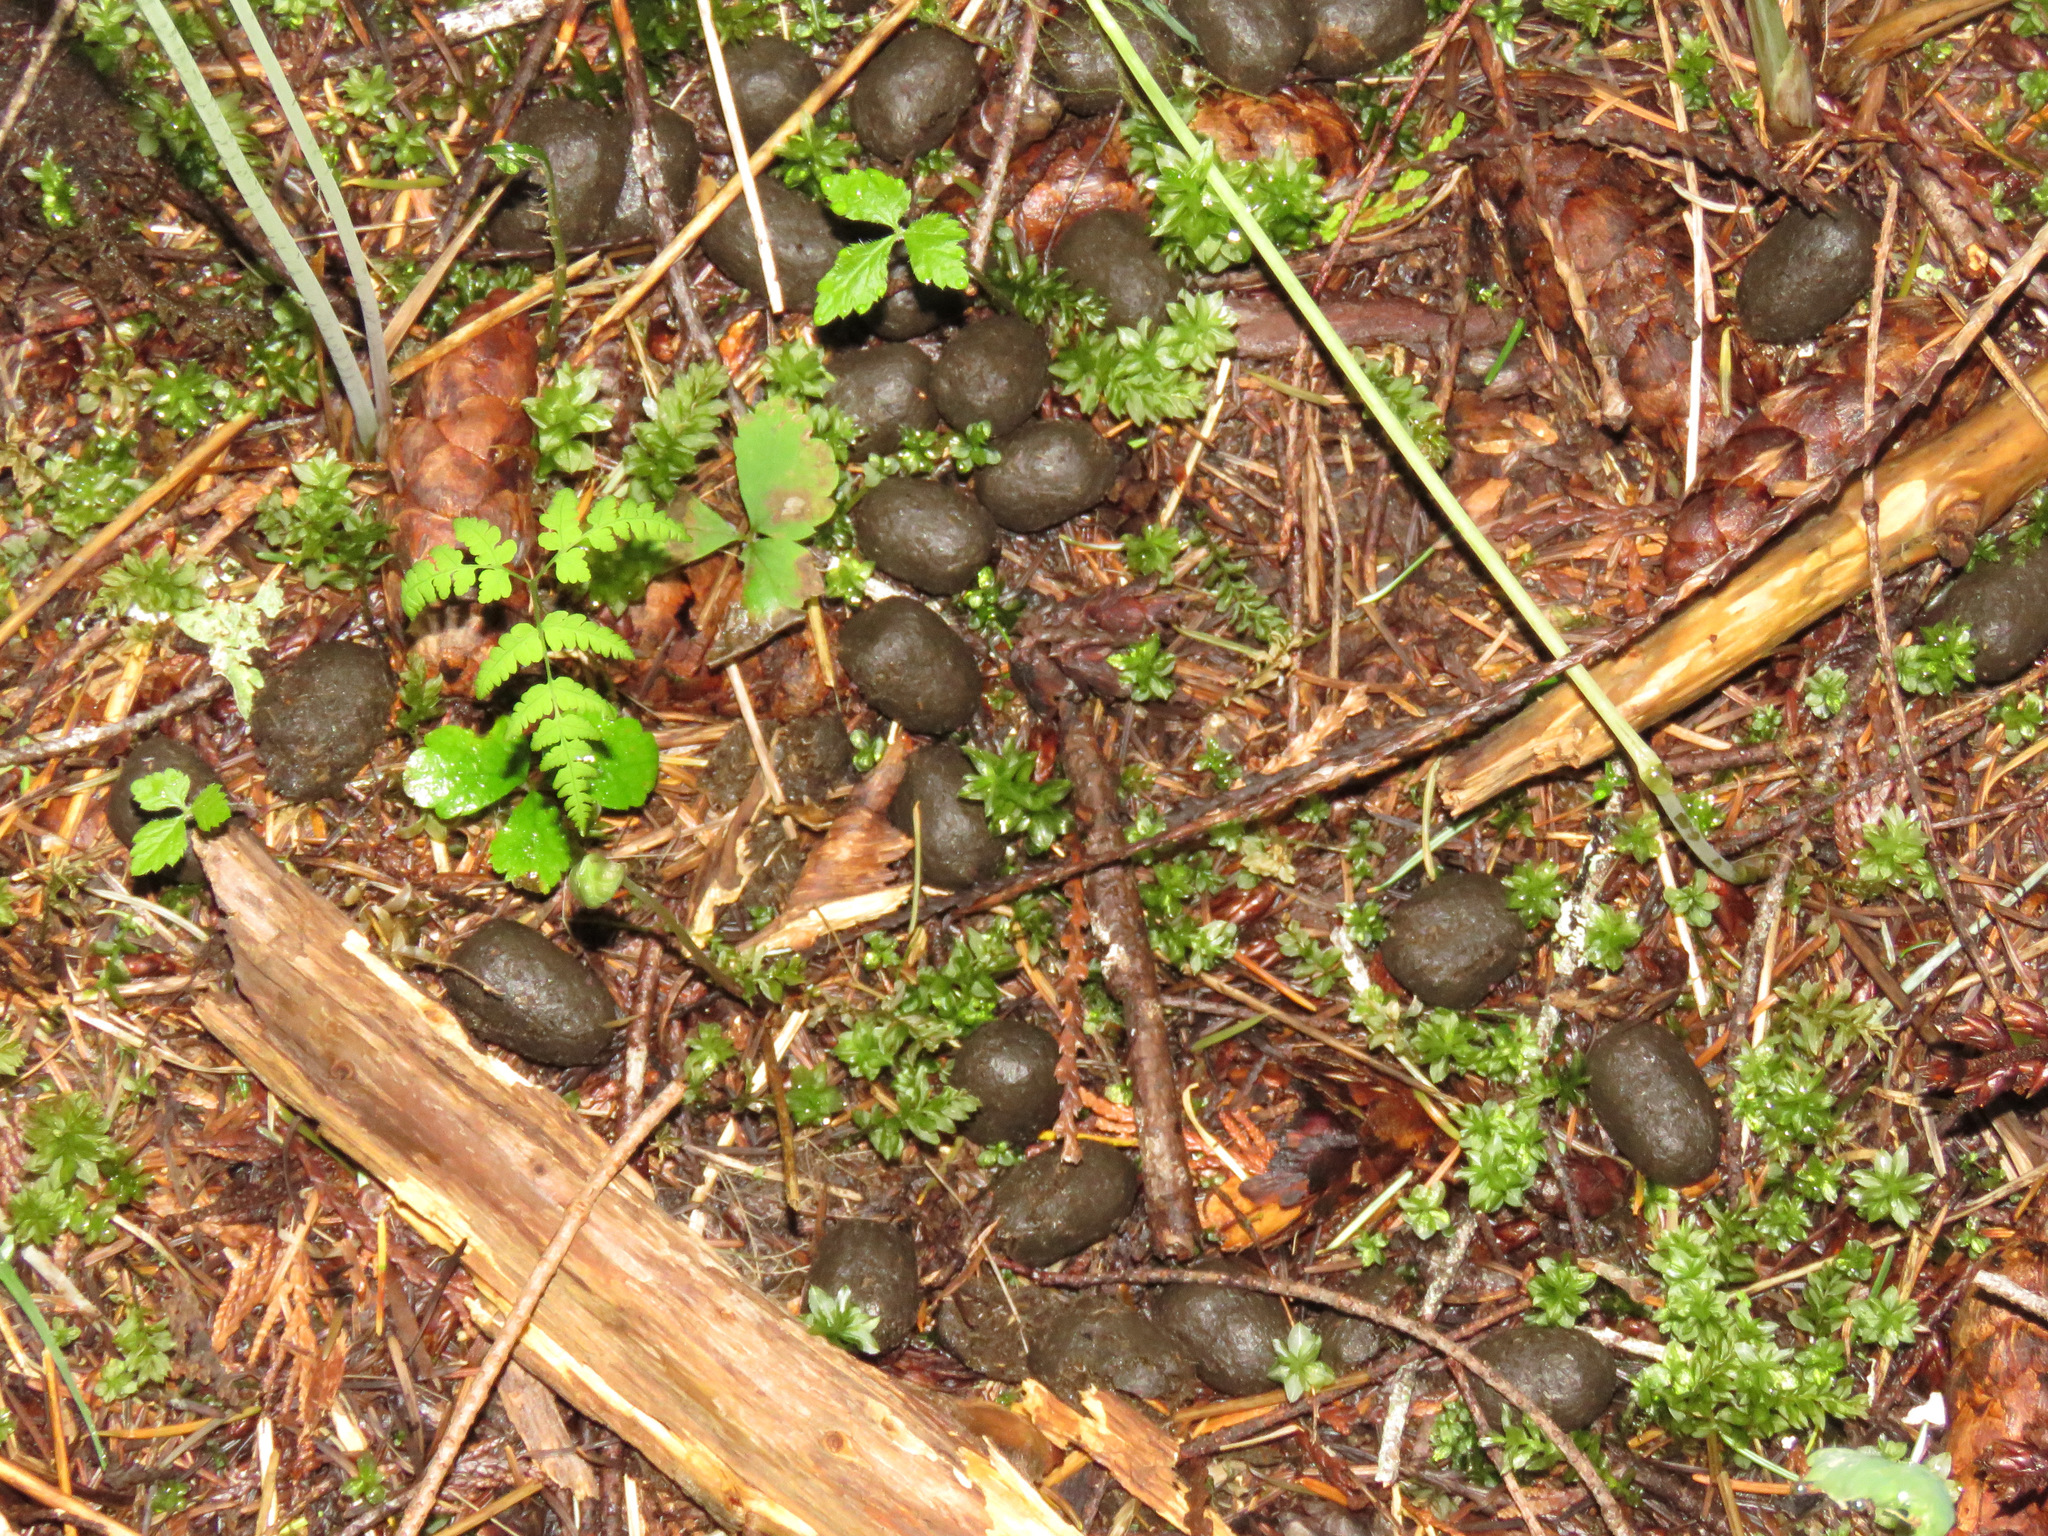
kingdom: Animalia
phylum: Chordata
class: Mammalia
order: Artiodactyla
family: Cervidae
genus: Cervus
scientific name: Cervus elaphus
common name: Red deer
